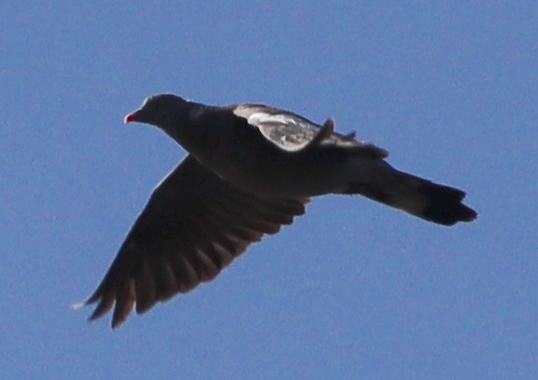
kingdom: Animalia
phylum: Chordata
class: Aves
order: Columbiformes
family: Columbidae
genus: Columba
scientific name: Columba palumbus
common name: Common wood pigeon
